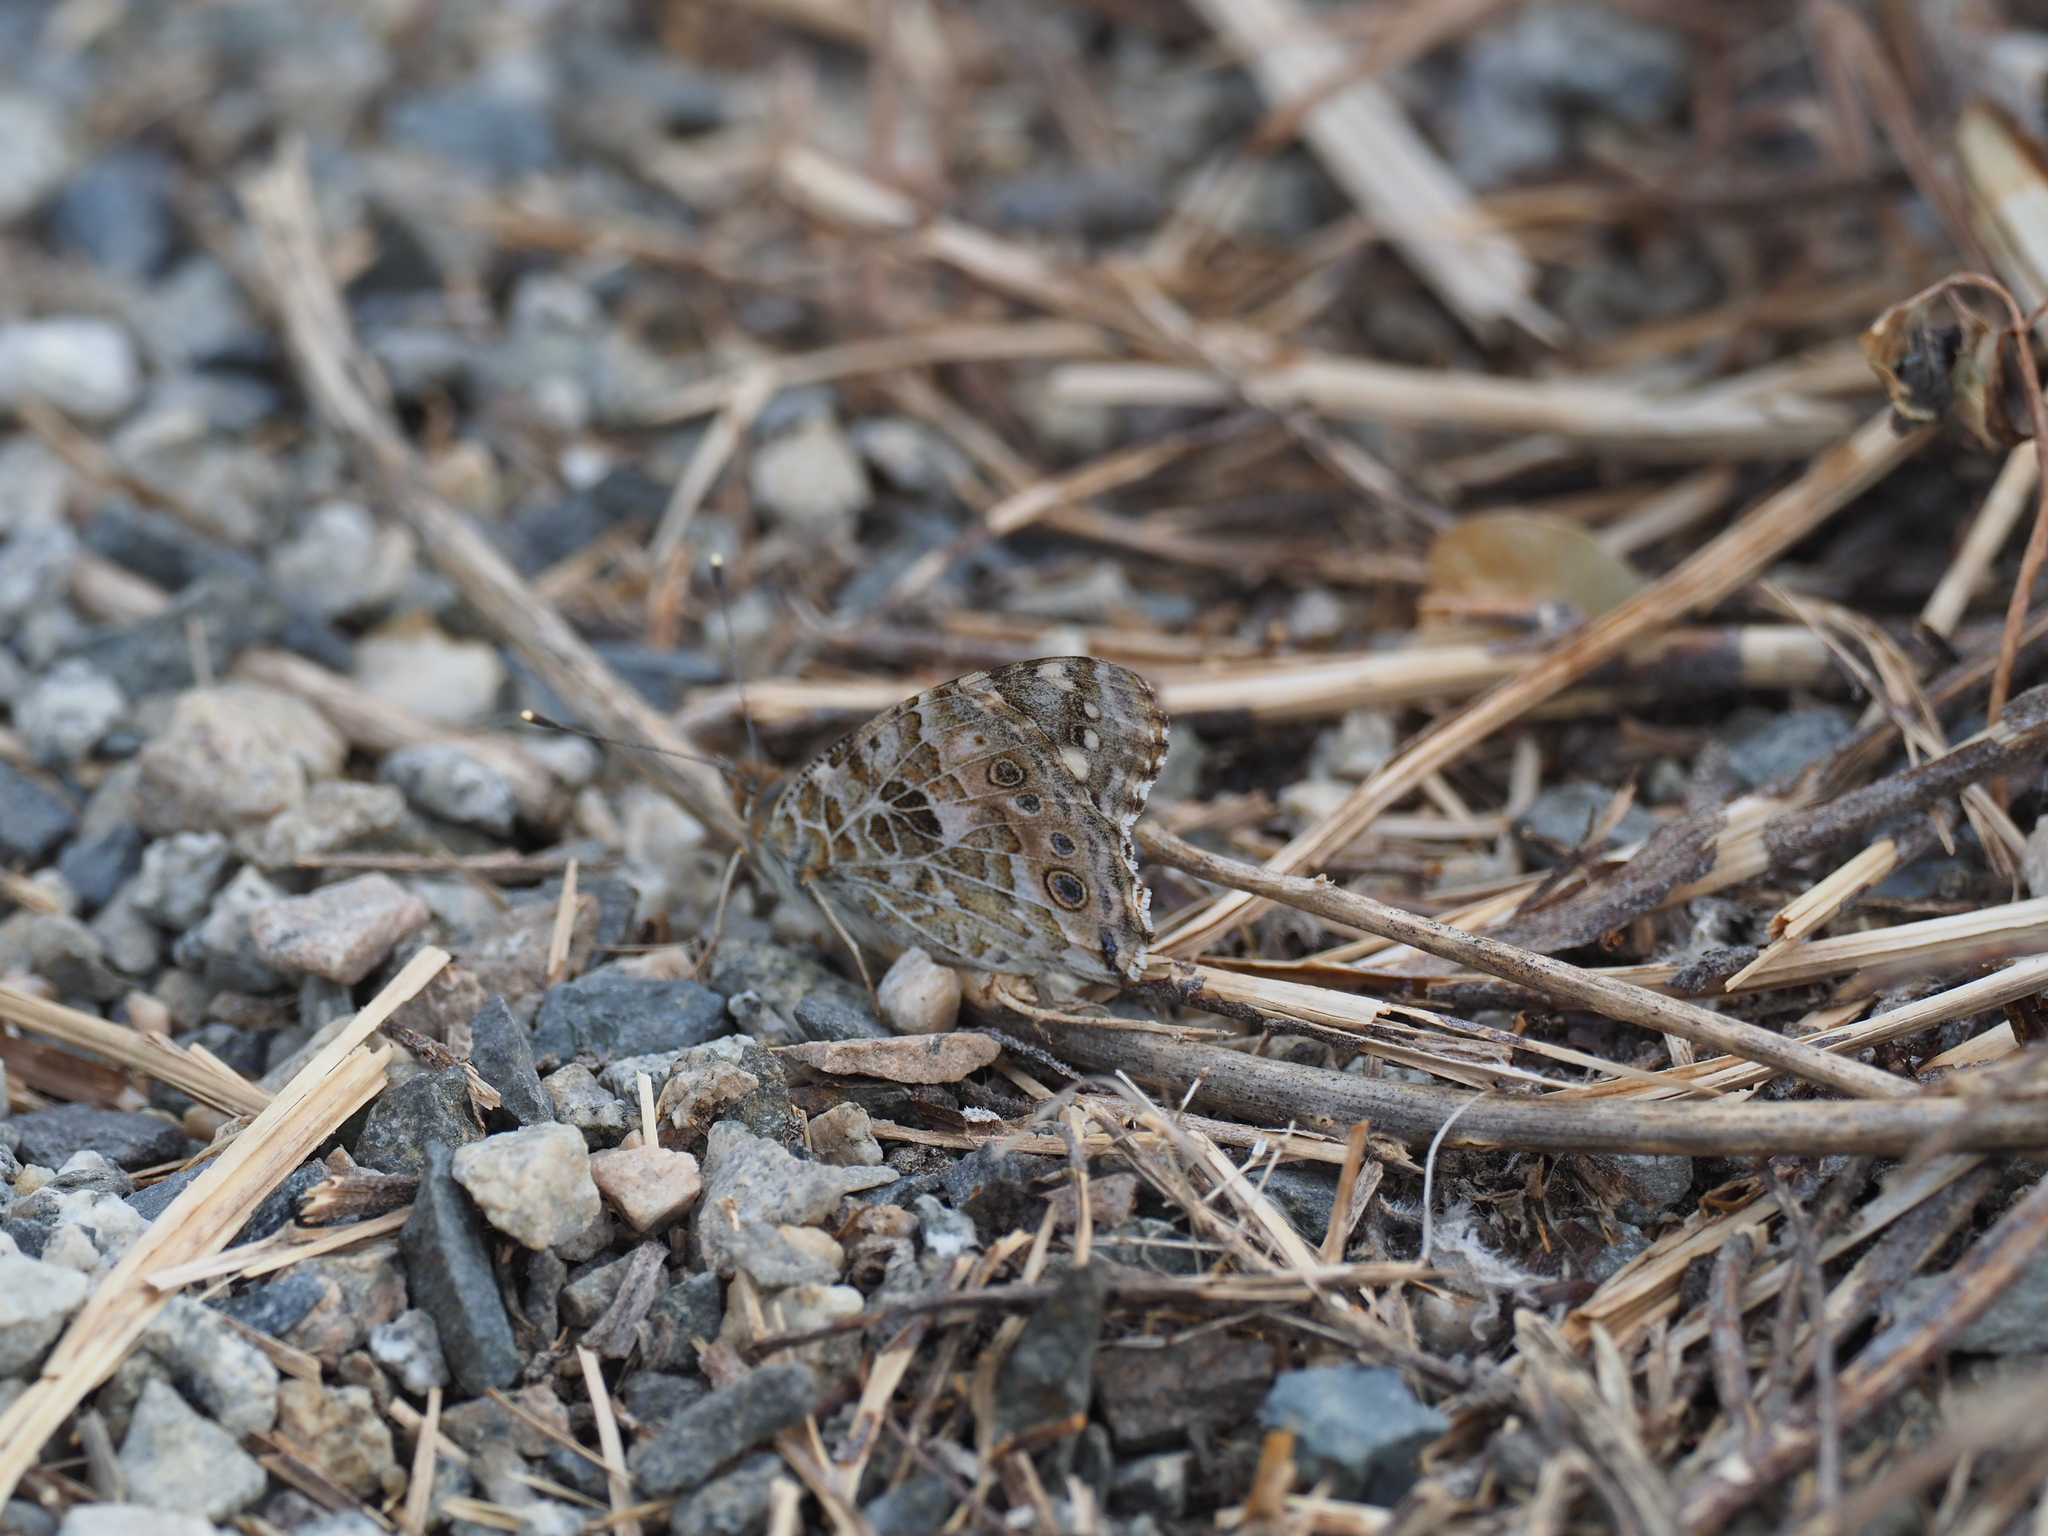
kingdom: Animalia
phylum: Arthropoda
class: Insecta
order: Lepidoptera
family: Nymphalidae
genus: Vanessa
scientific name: Vanessa cardui
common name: Painted lady
